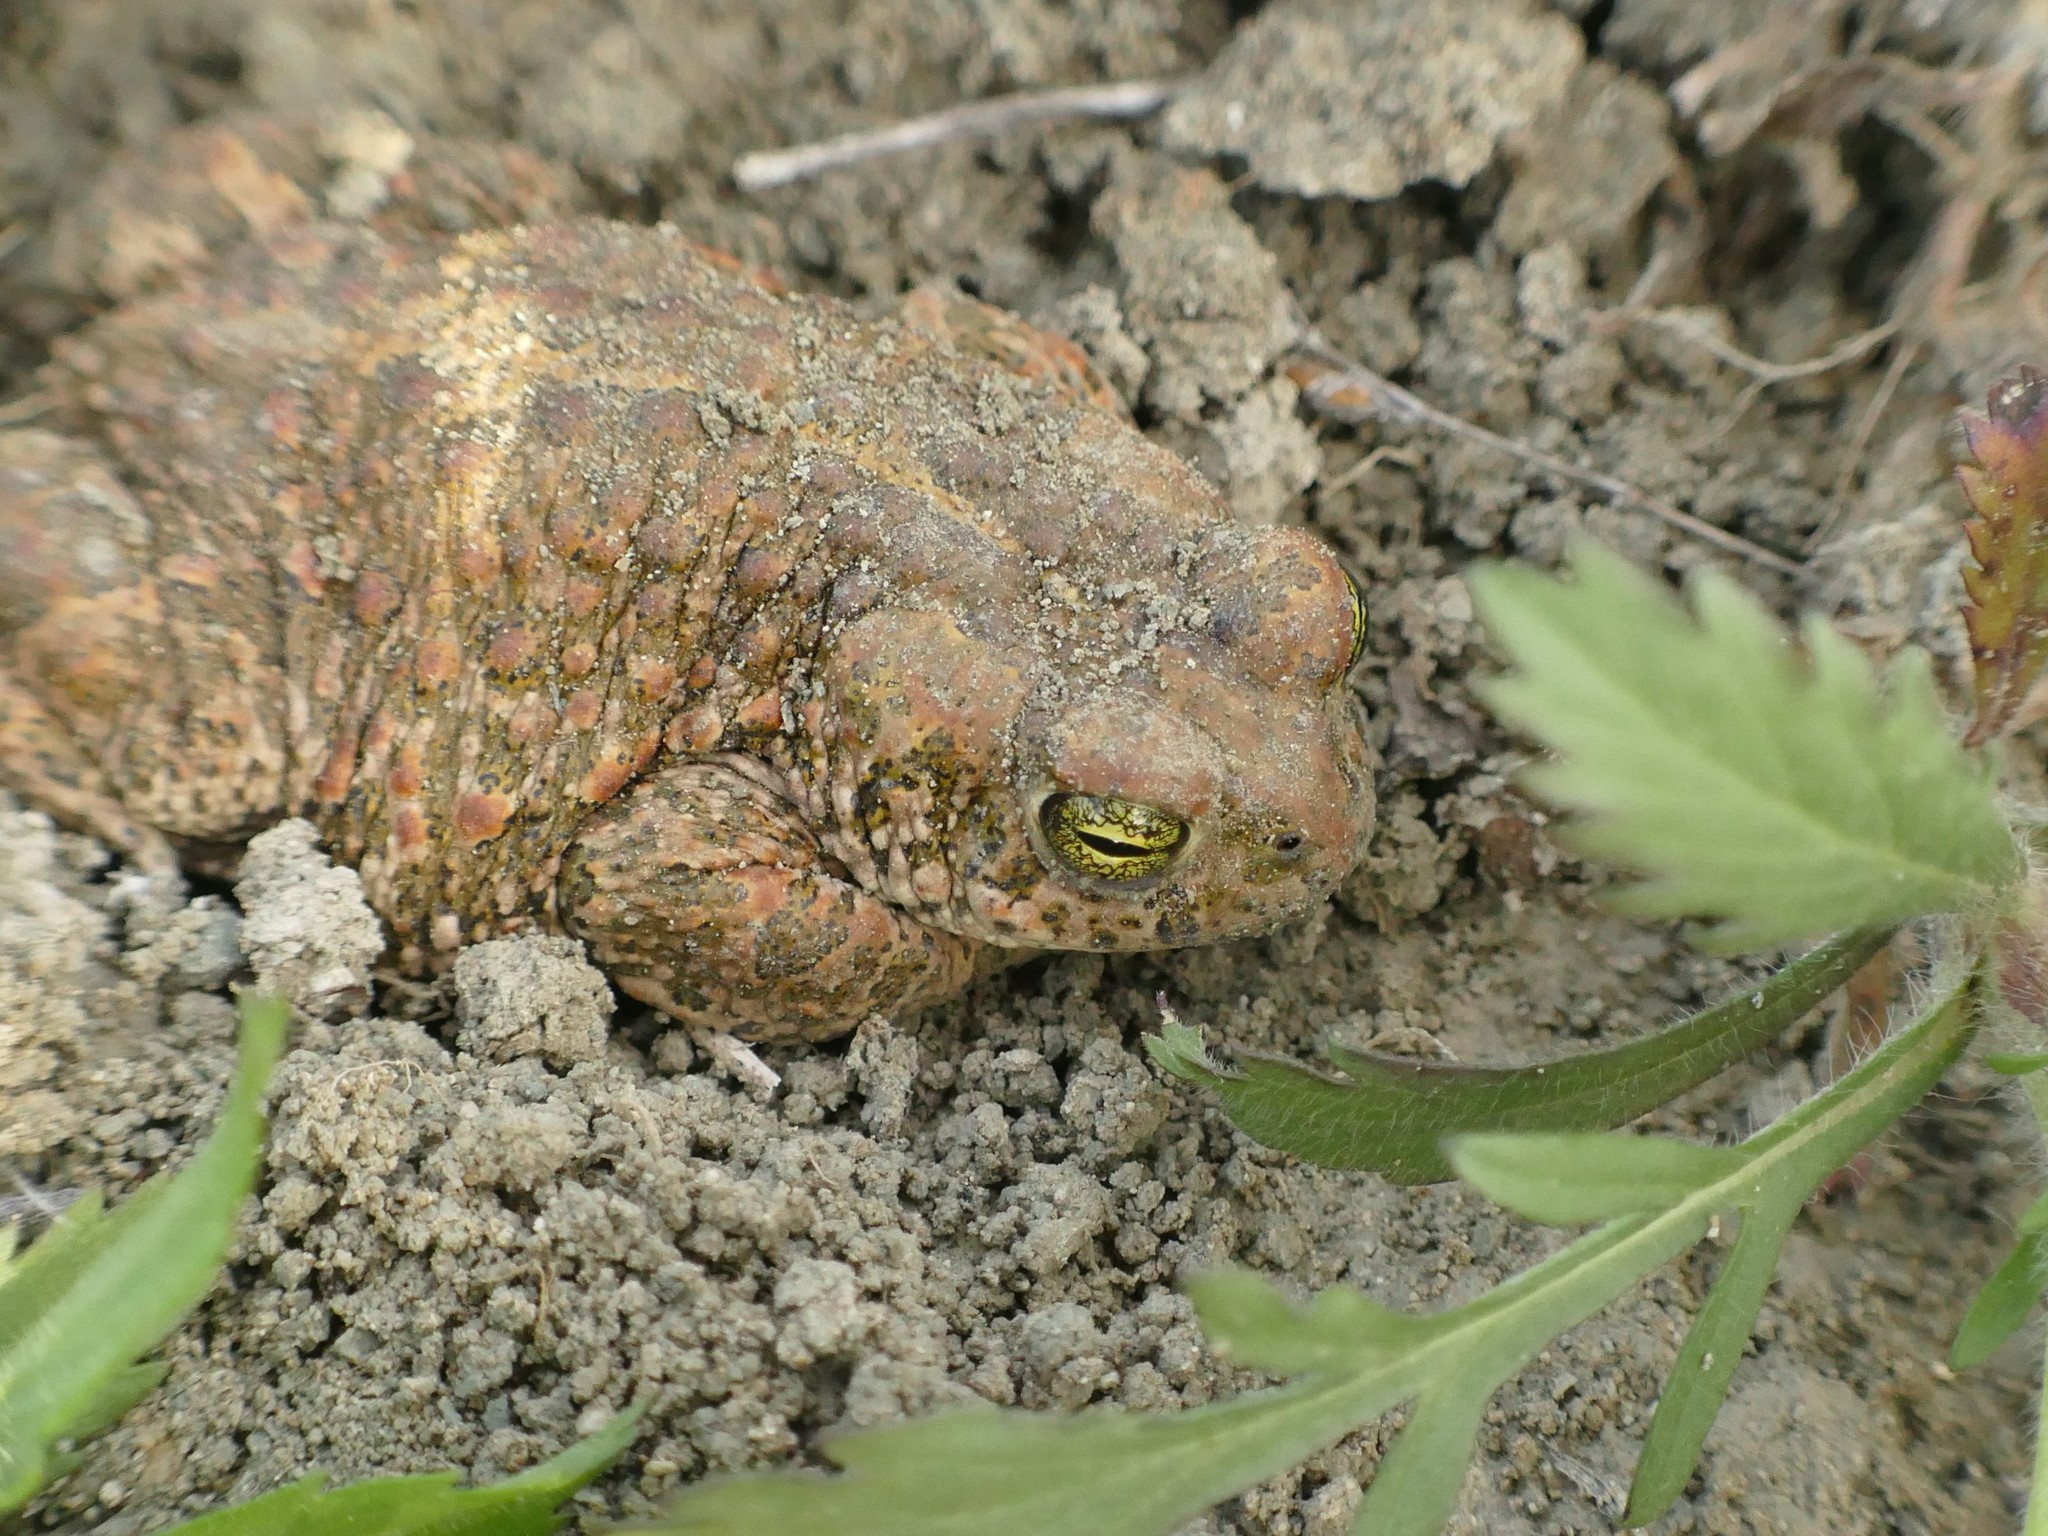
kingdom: Animalia
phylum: Chordata
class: Amphibia
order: Anura
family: Bufonidae
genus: Epidalea
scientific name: Epidalea calamita
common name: Natterjack toad
